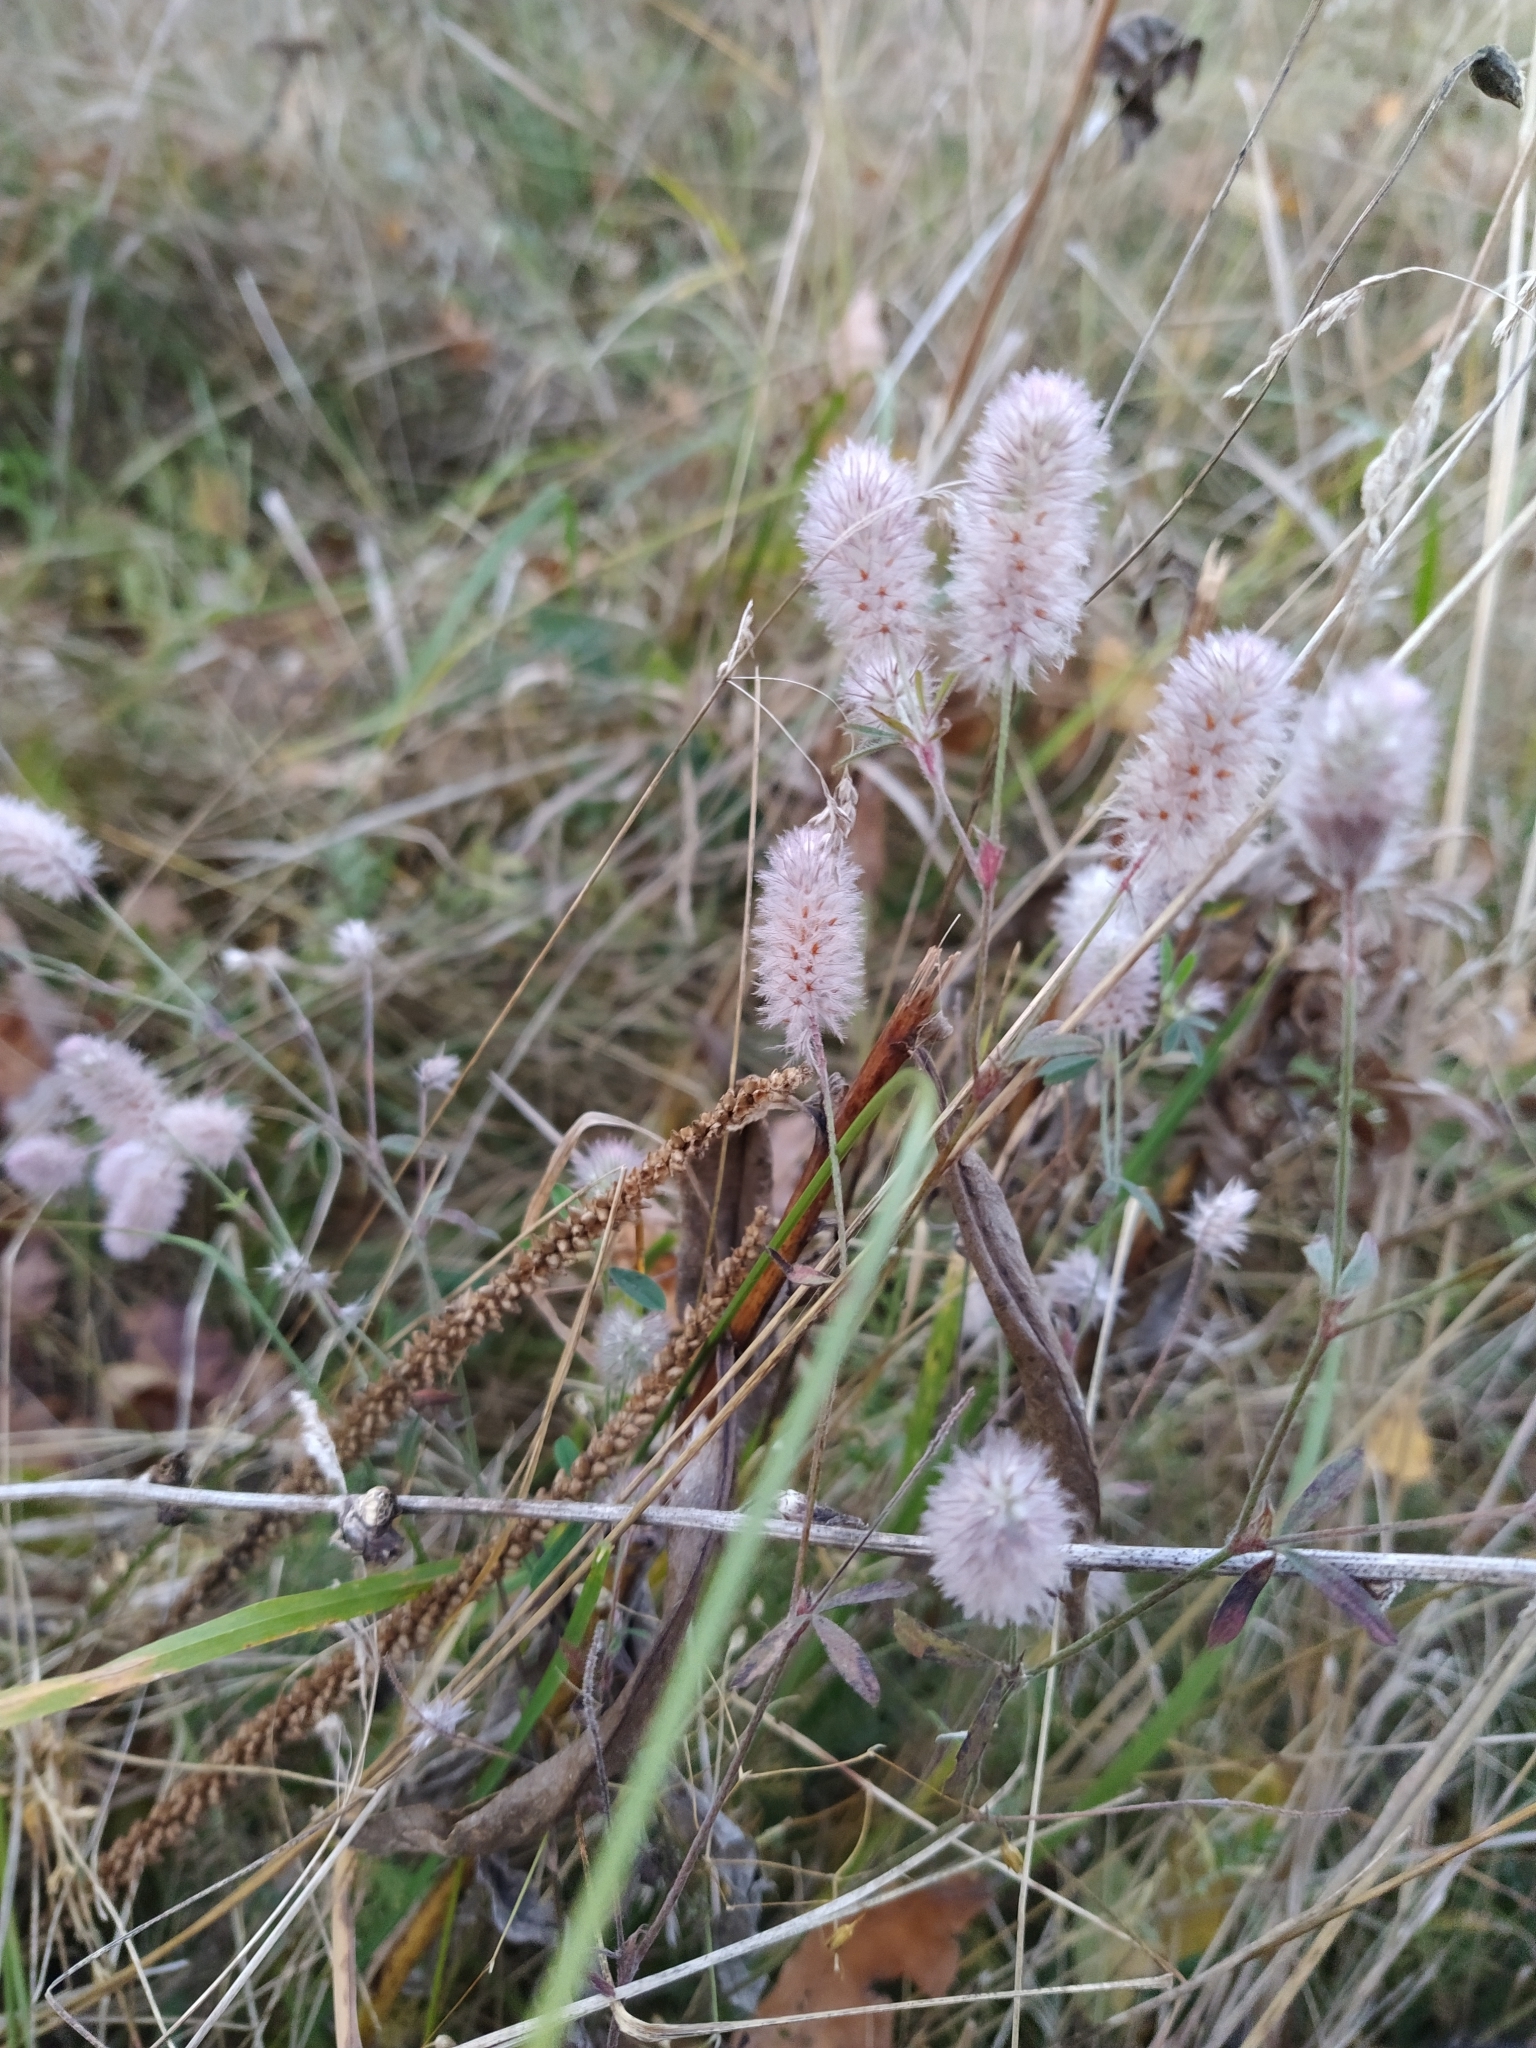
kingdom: Plantae
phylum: Tracheophyta
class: Magnoliopsida
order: Fabales
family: Fabaceae
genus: Trifolium
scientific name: Trifolium arvense
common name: Hare's-foot clover
